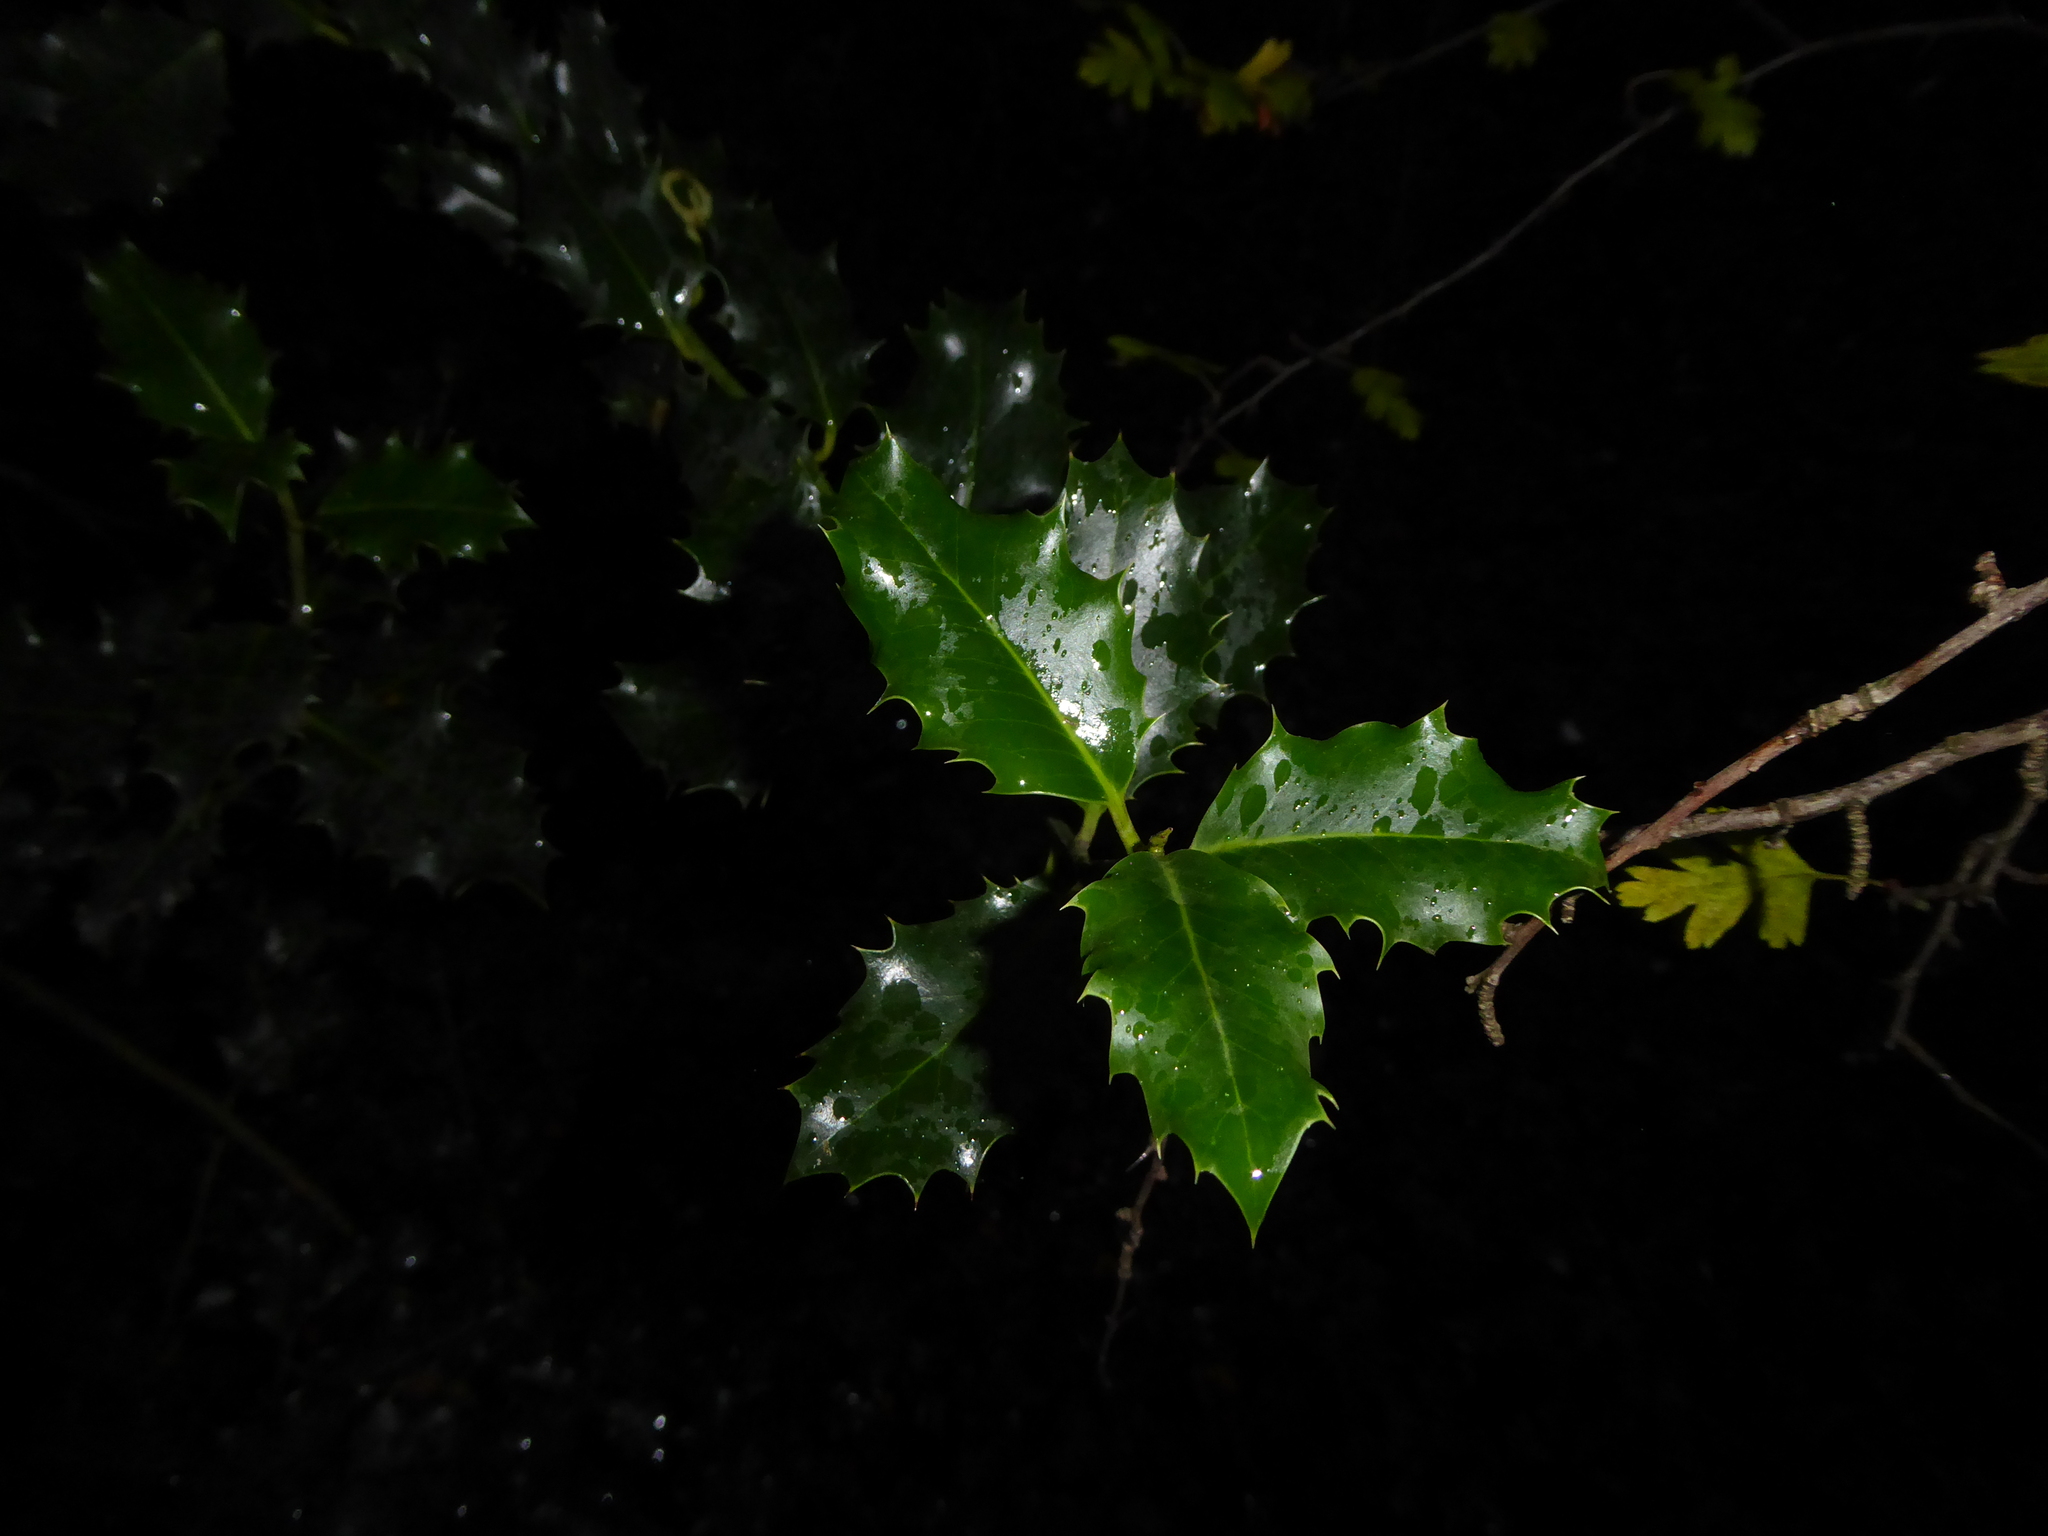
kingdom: Plantae
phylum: Tracheophyta
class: Magnoliopsida
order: Aquifoliales
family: Aquifoliaceae
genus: Ilex
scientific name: Ilex aquifolium
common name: English holly
